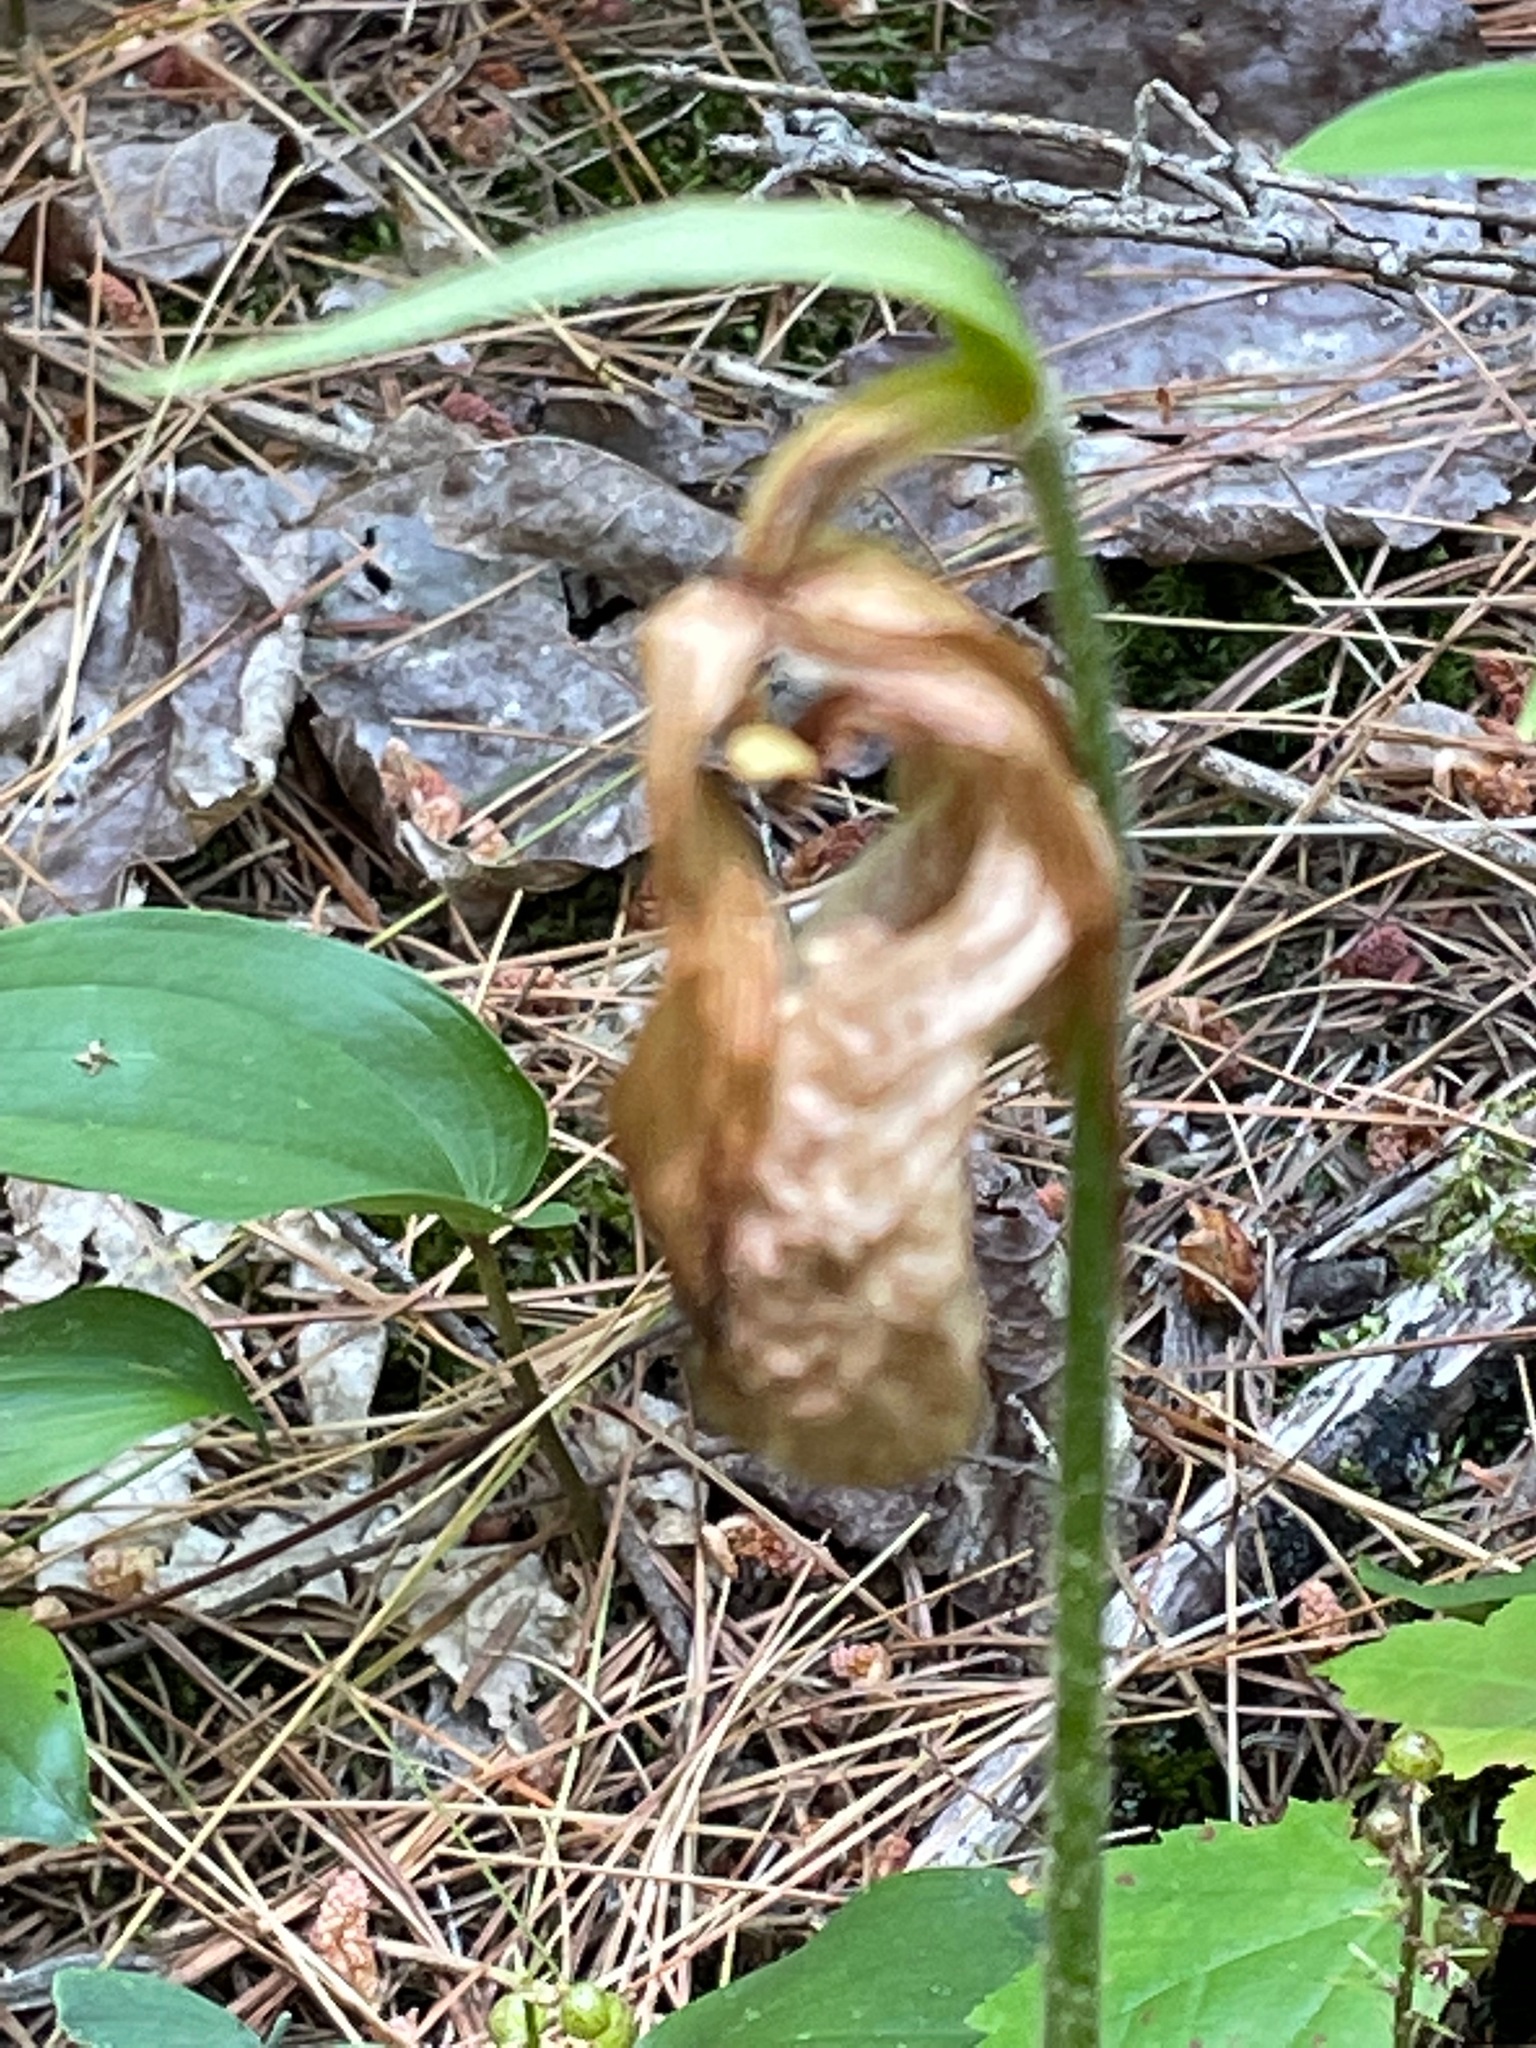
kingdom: Plantae
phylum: Tracheophyta
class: Liliopsida
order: Asparagales
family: Orchidaceae
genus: Cypripedium
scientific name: Cypripedium acaule
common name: Pink lady's-slipper
